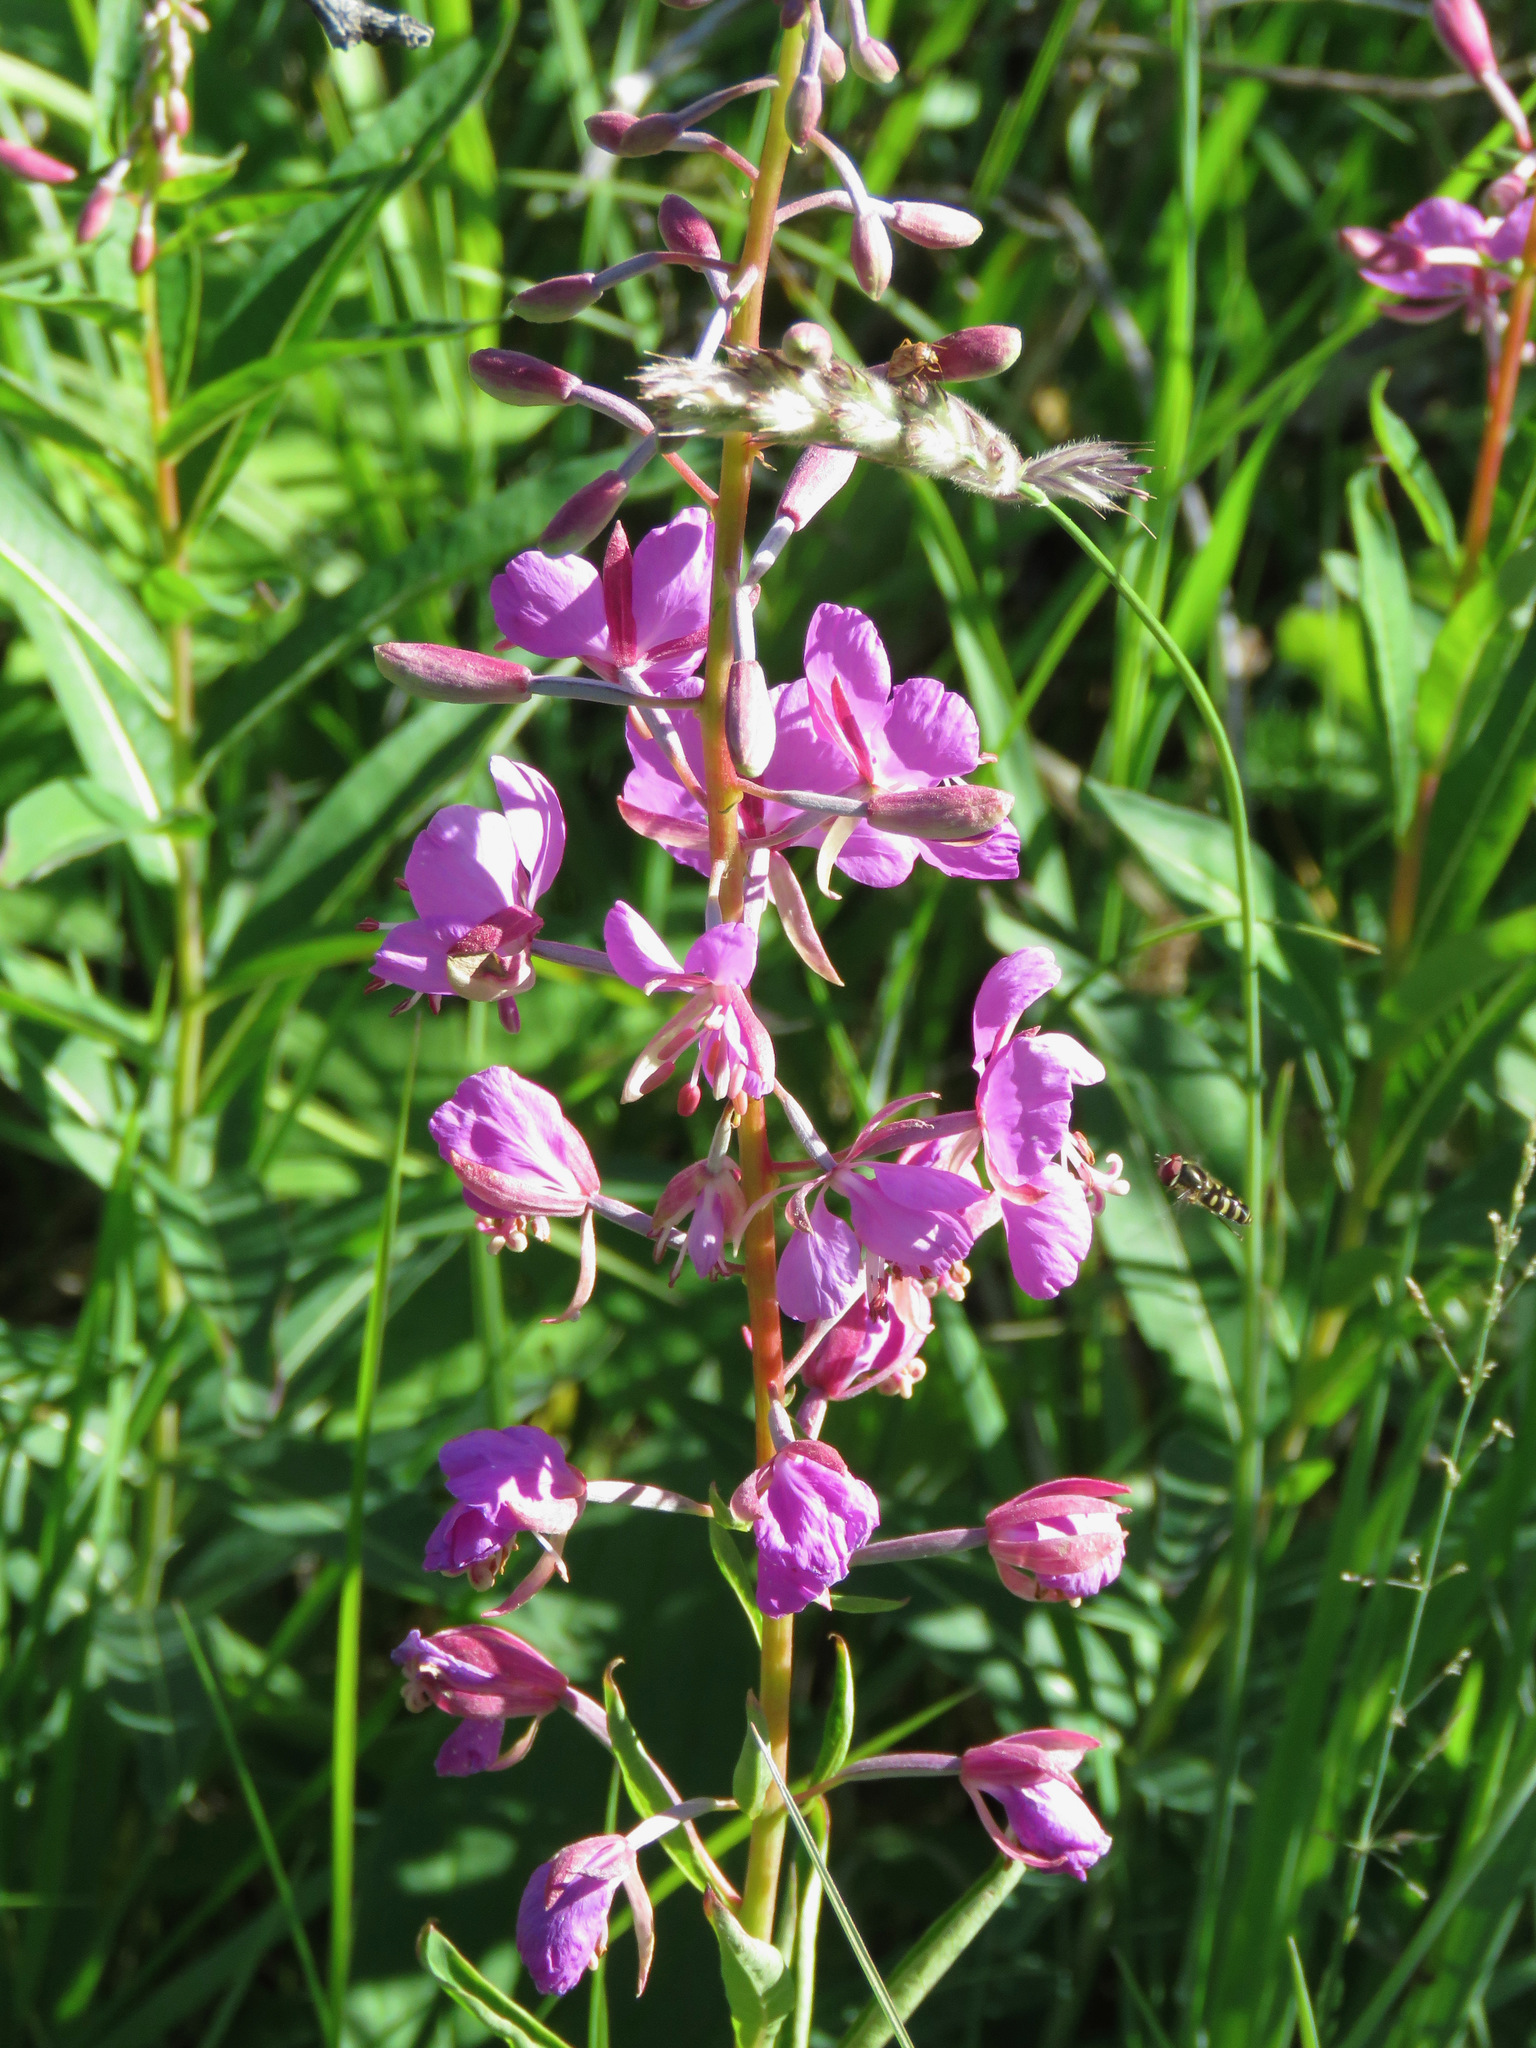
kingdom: Plantae
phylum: Tracheophyta
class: Magnoliopsida
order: Myrtales
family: Onagraceae
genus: Chamaenerion
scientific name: Chamaenerion angustifolium
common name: Fireweed
